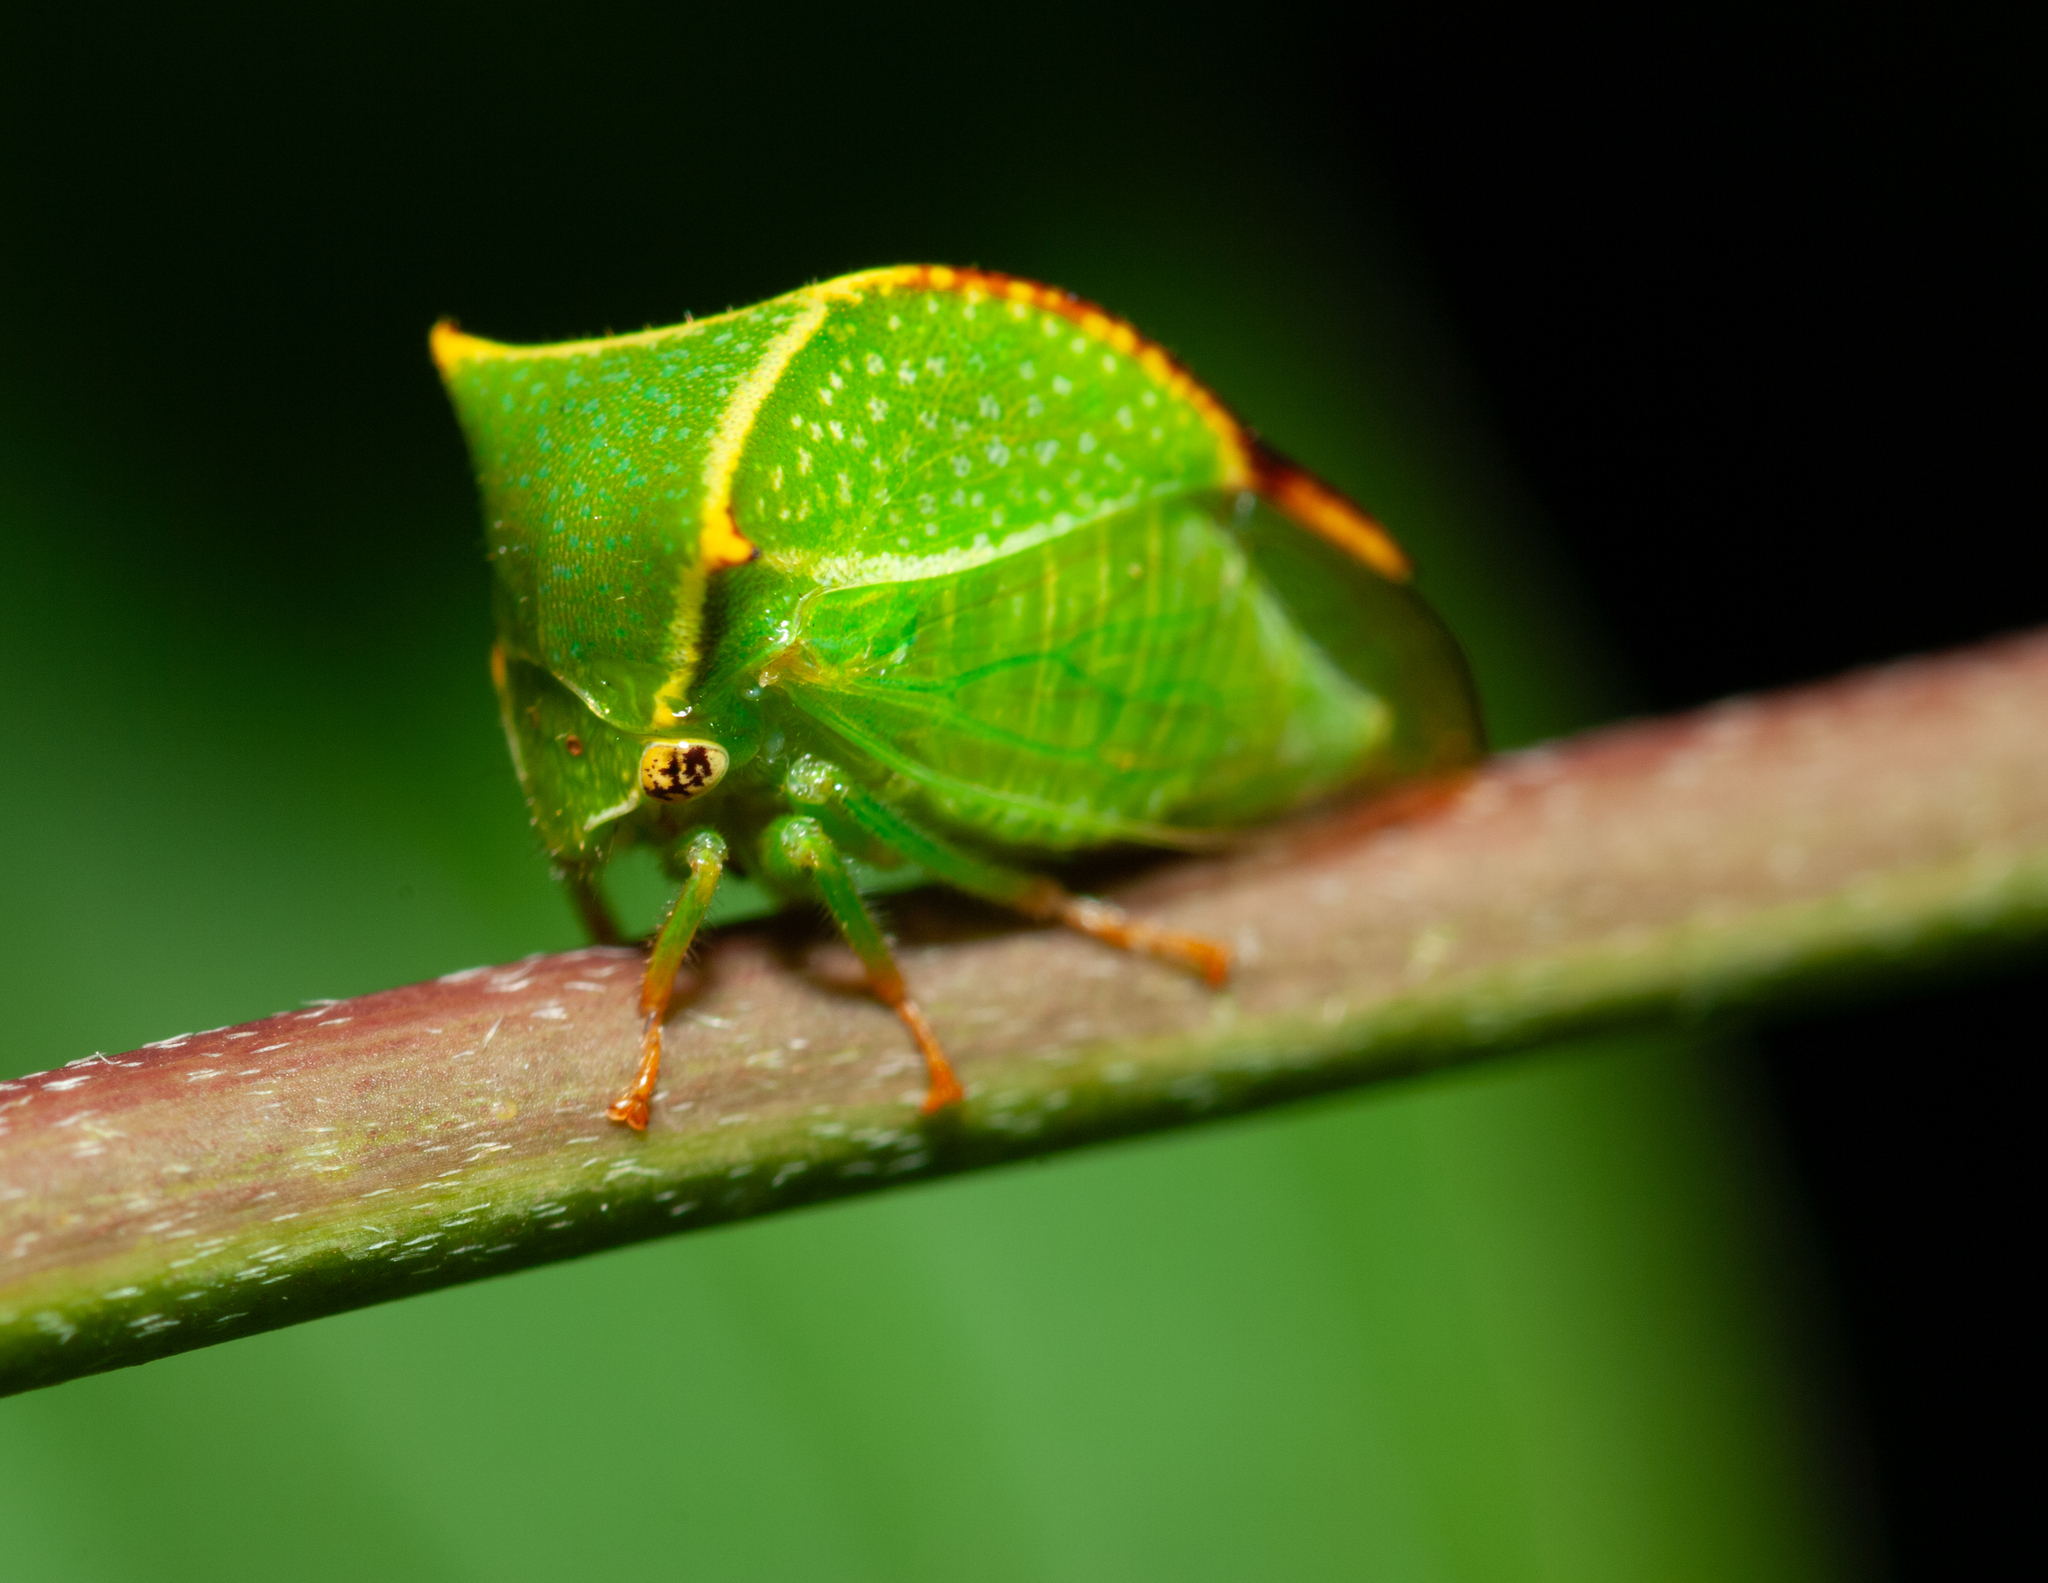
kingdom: Animalia
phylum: Arthropoda
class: Insecta
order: Hemiptera
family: Membracidae
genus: Stictocephala
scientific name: Stictocephala bisonia
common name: American buffalo treehopper
